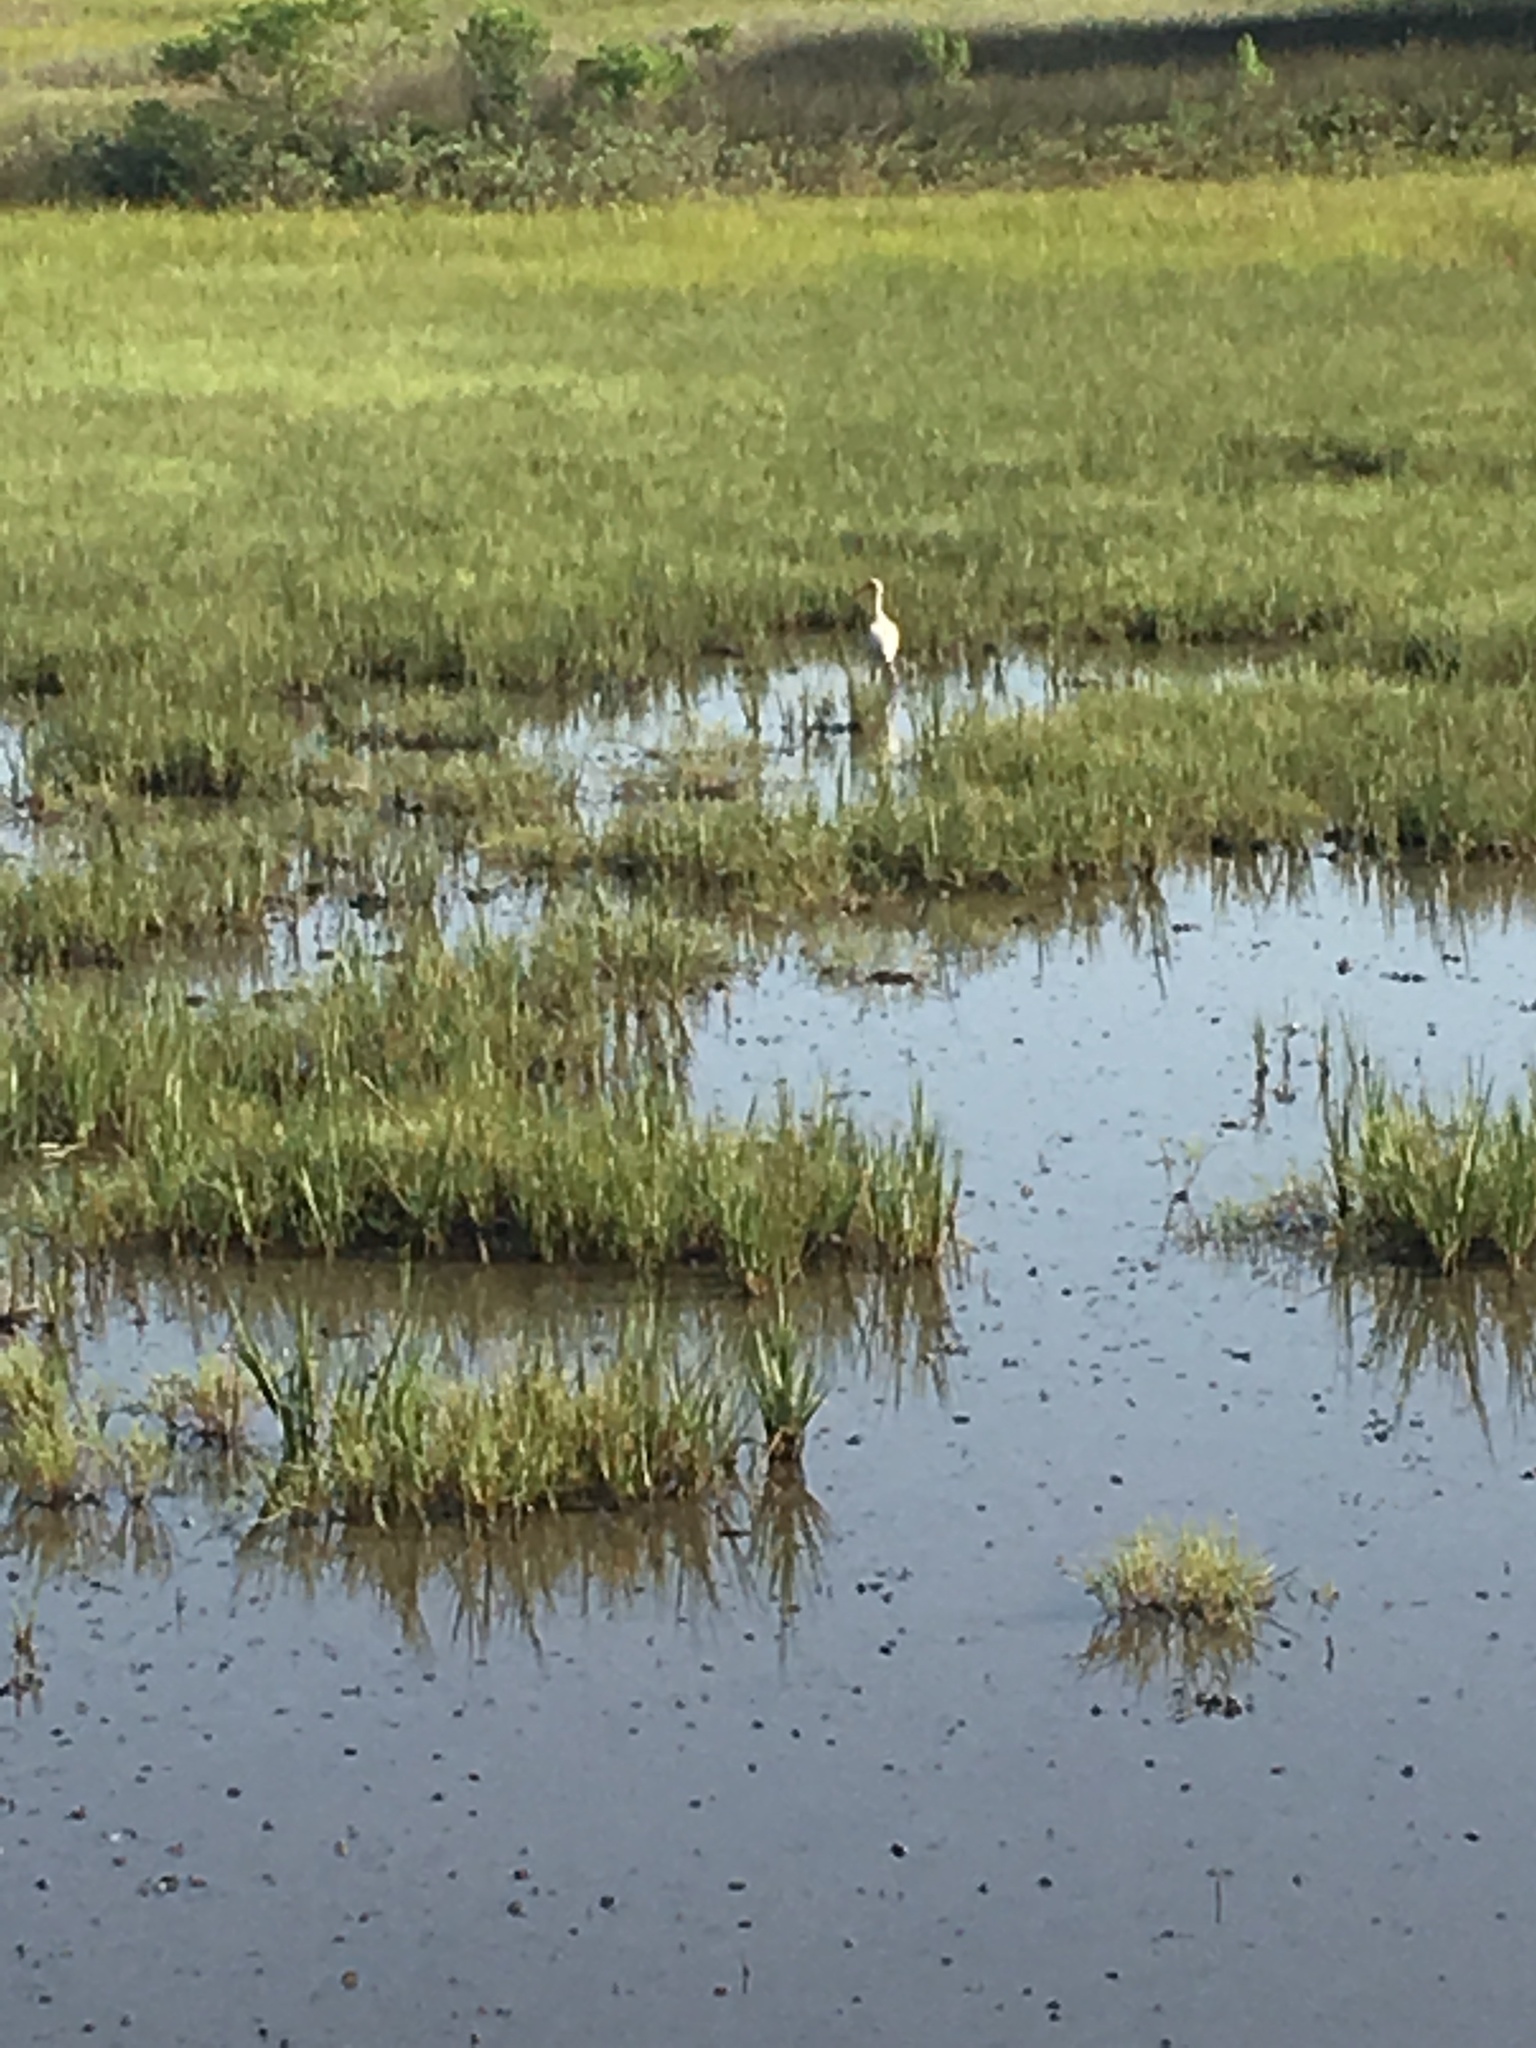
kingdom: Animalia
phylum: Chordata
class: Aves
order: Pelecaniformes
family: Threskiornithidae
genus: Eudocimus
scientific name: Eudocimus albus
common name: White ibis
